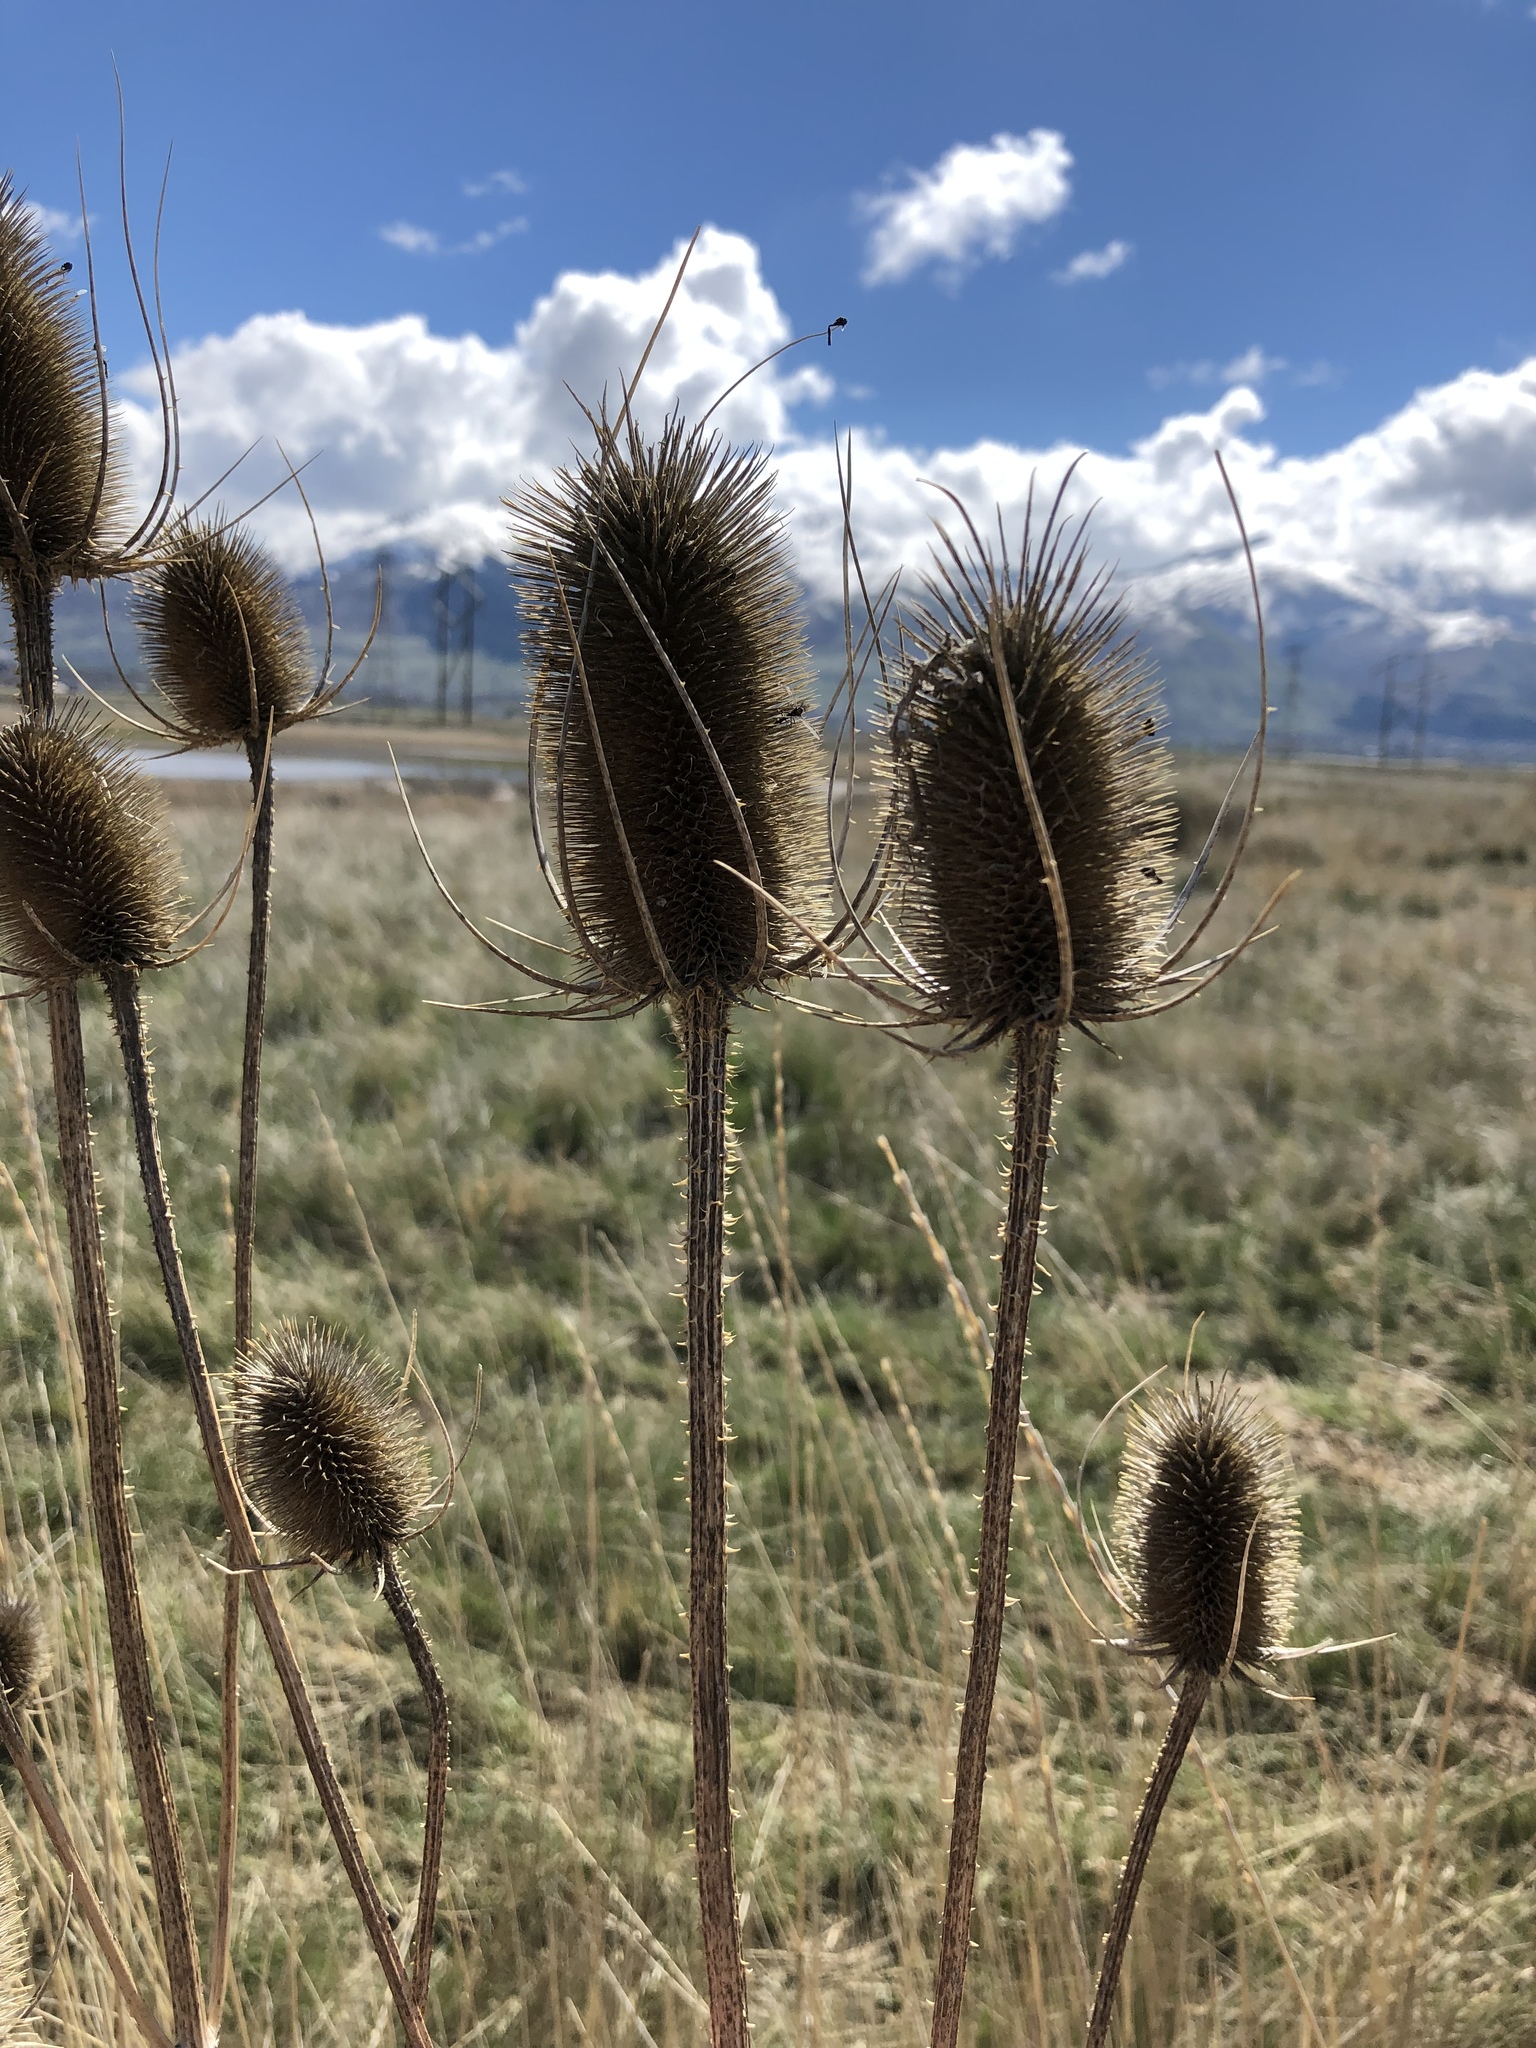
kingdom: Plantae
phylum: Tracheophyta
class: Magnoliopsida
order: Dipsacales
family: Caprifoliaceae
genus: Dipsacus
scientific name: Dipsacus fullonum
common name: Teasel
